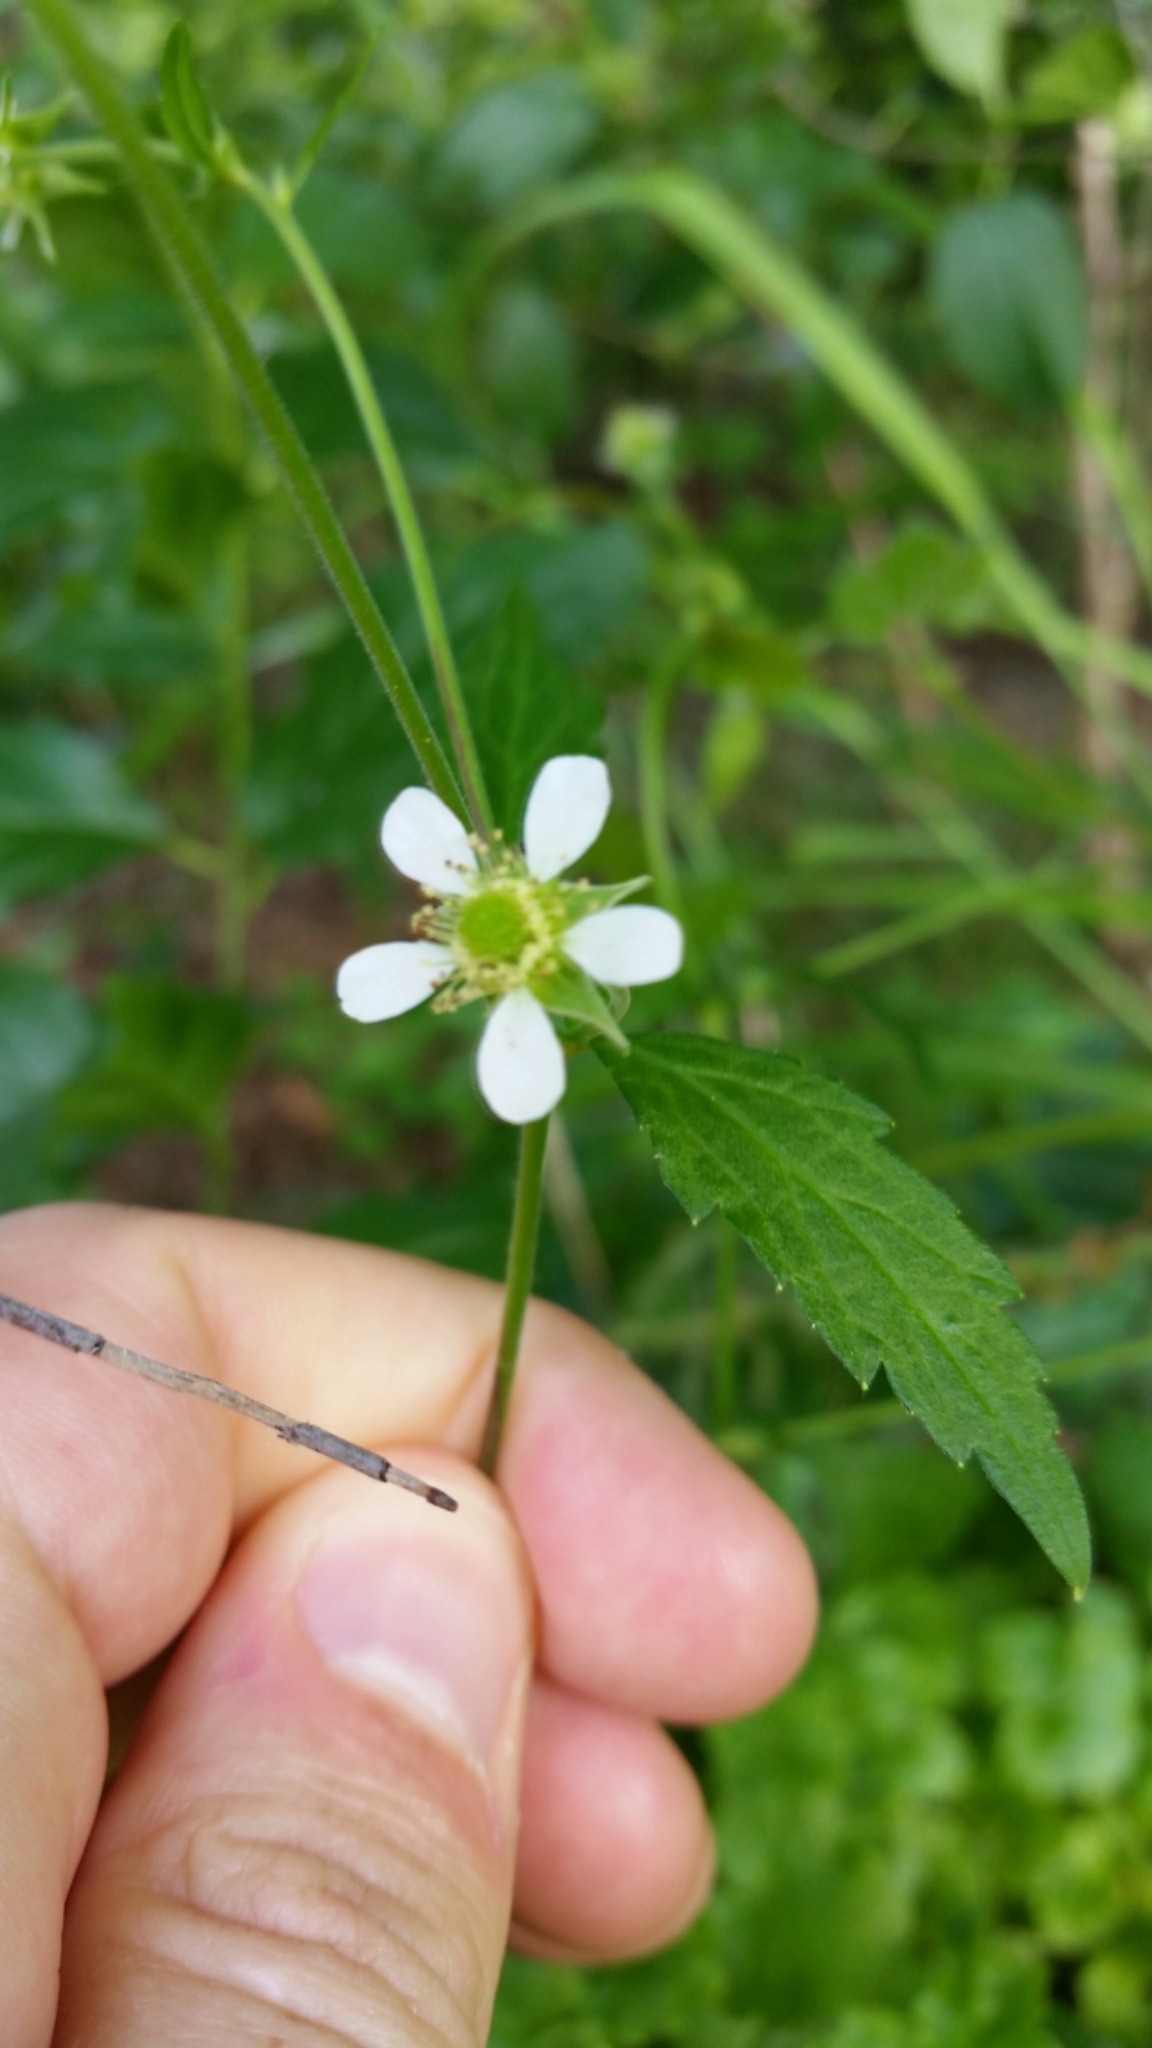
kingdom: Plantae
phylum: Tracheophyta
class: Magnoliopsida
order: Rosales
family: Rosaceae
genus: Geum
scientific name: Geum canadense
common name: White avens
